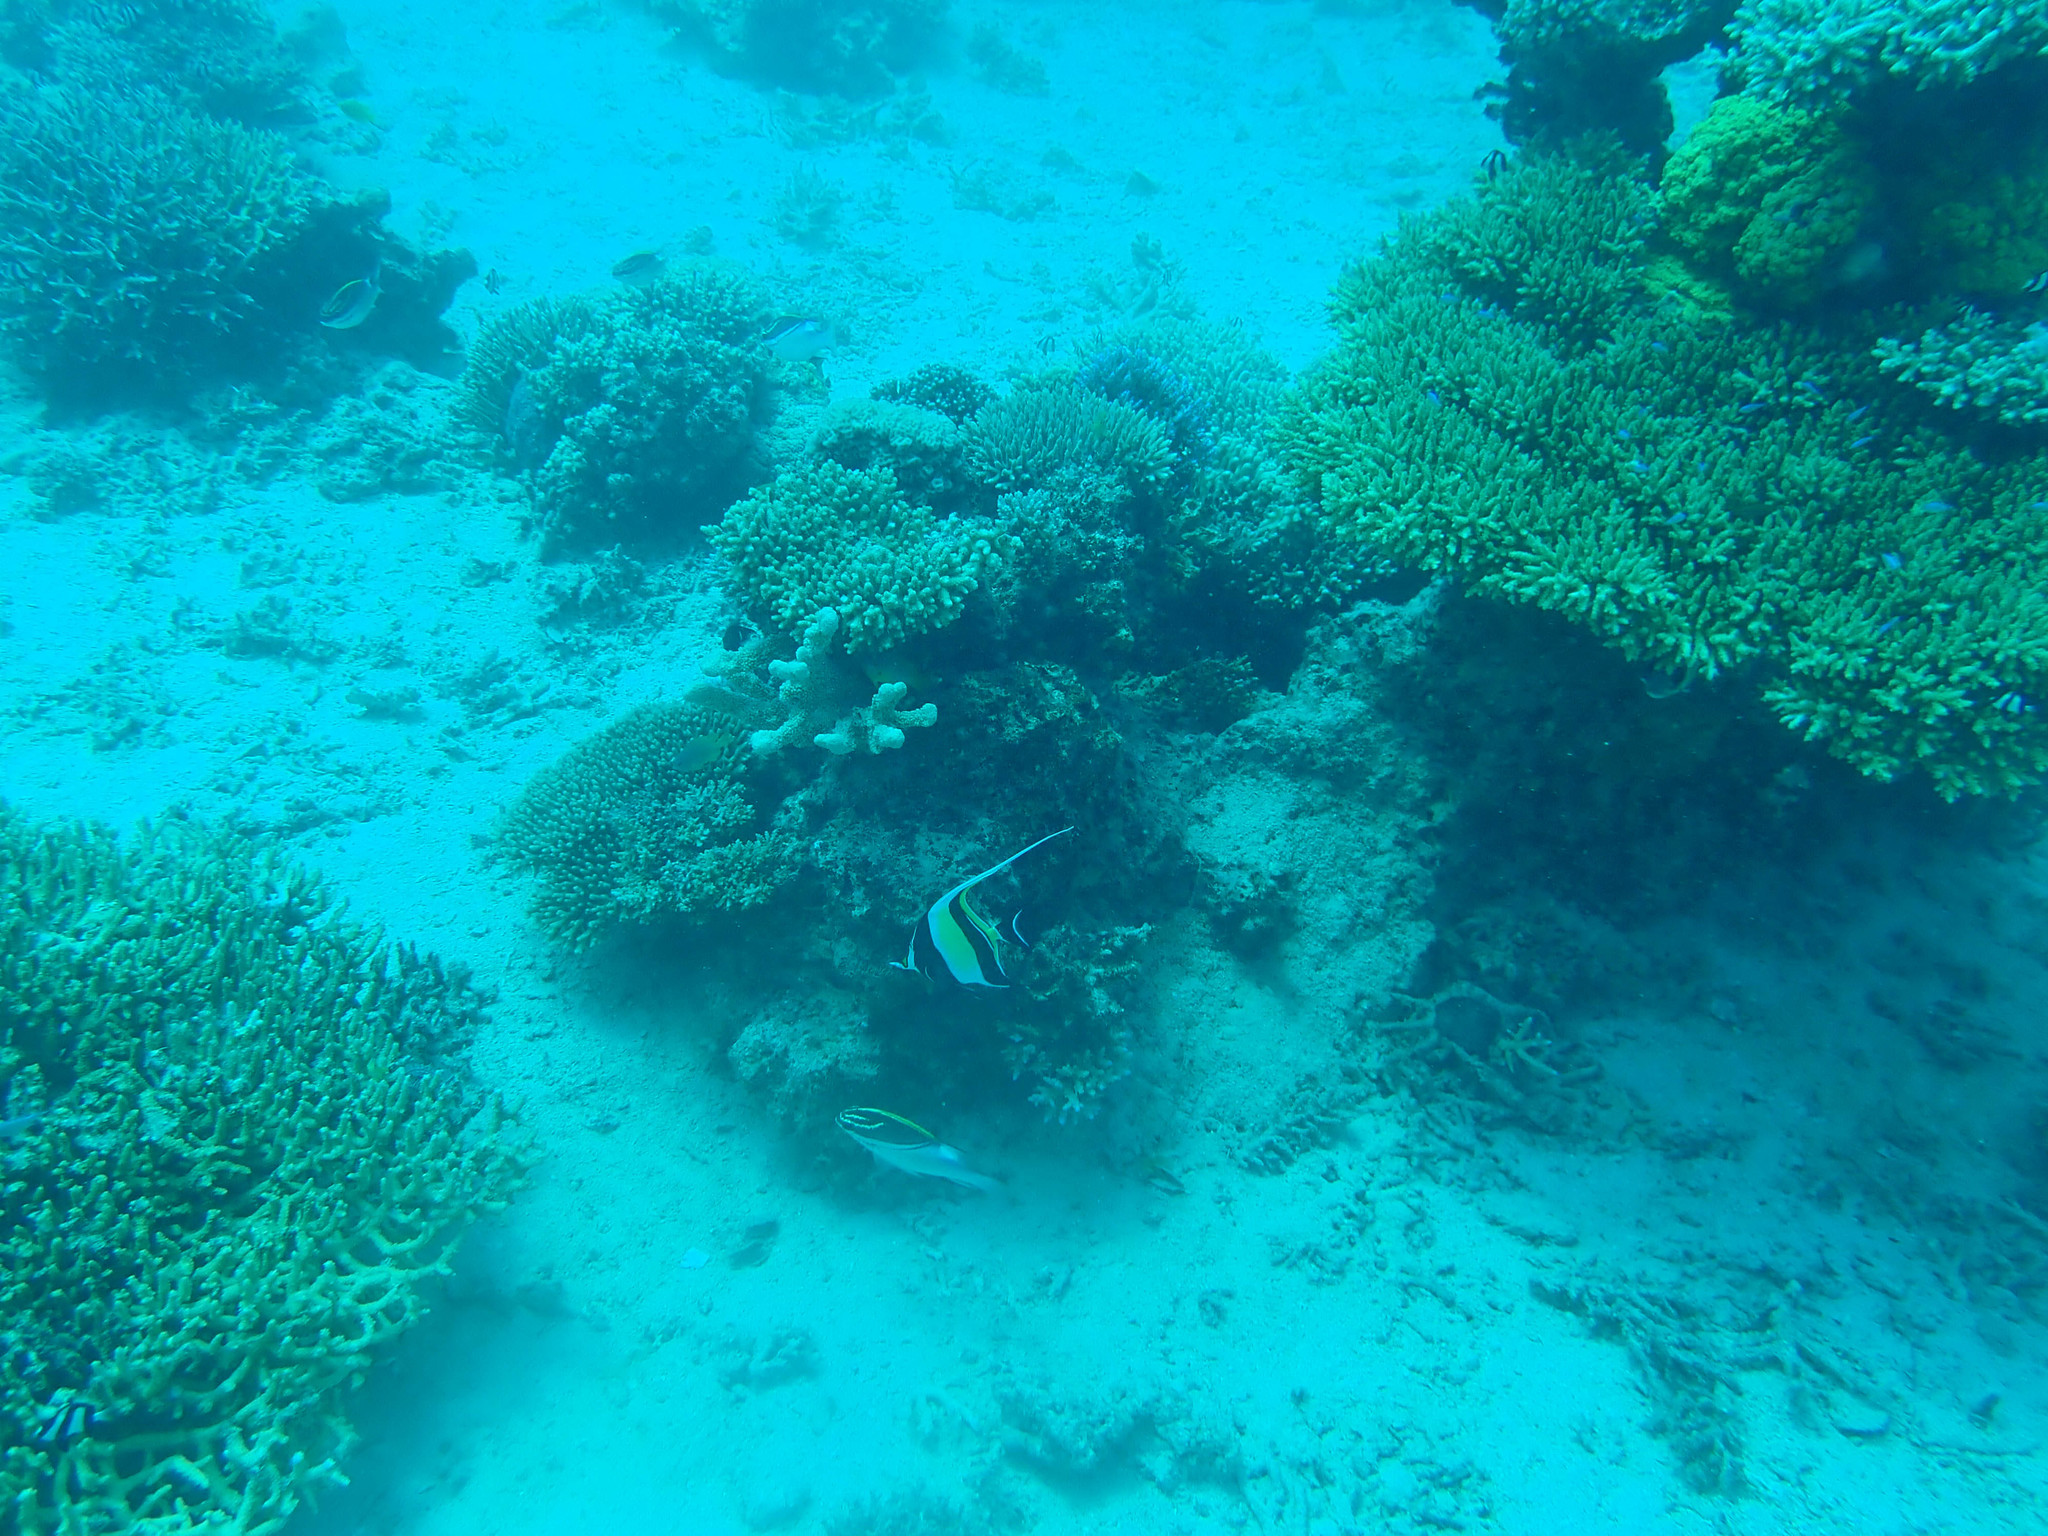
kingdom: Animalia
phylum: Chordata
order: Perciformes
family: Zanclidae
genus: Zanclus
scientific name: Zanclus cornutus
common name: Moorish idol
